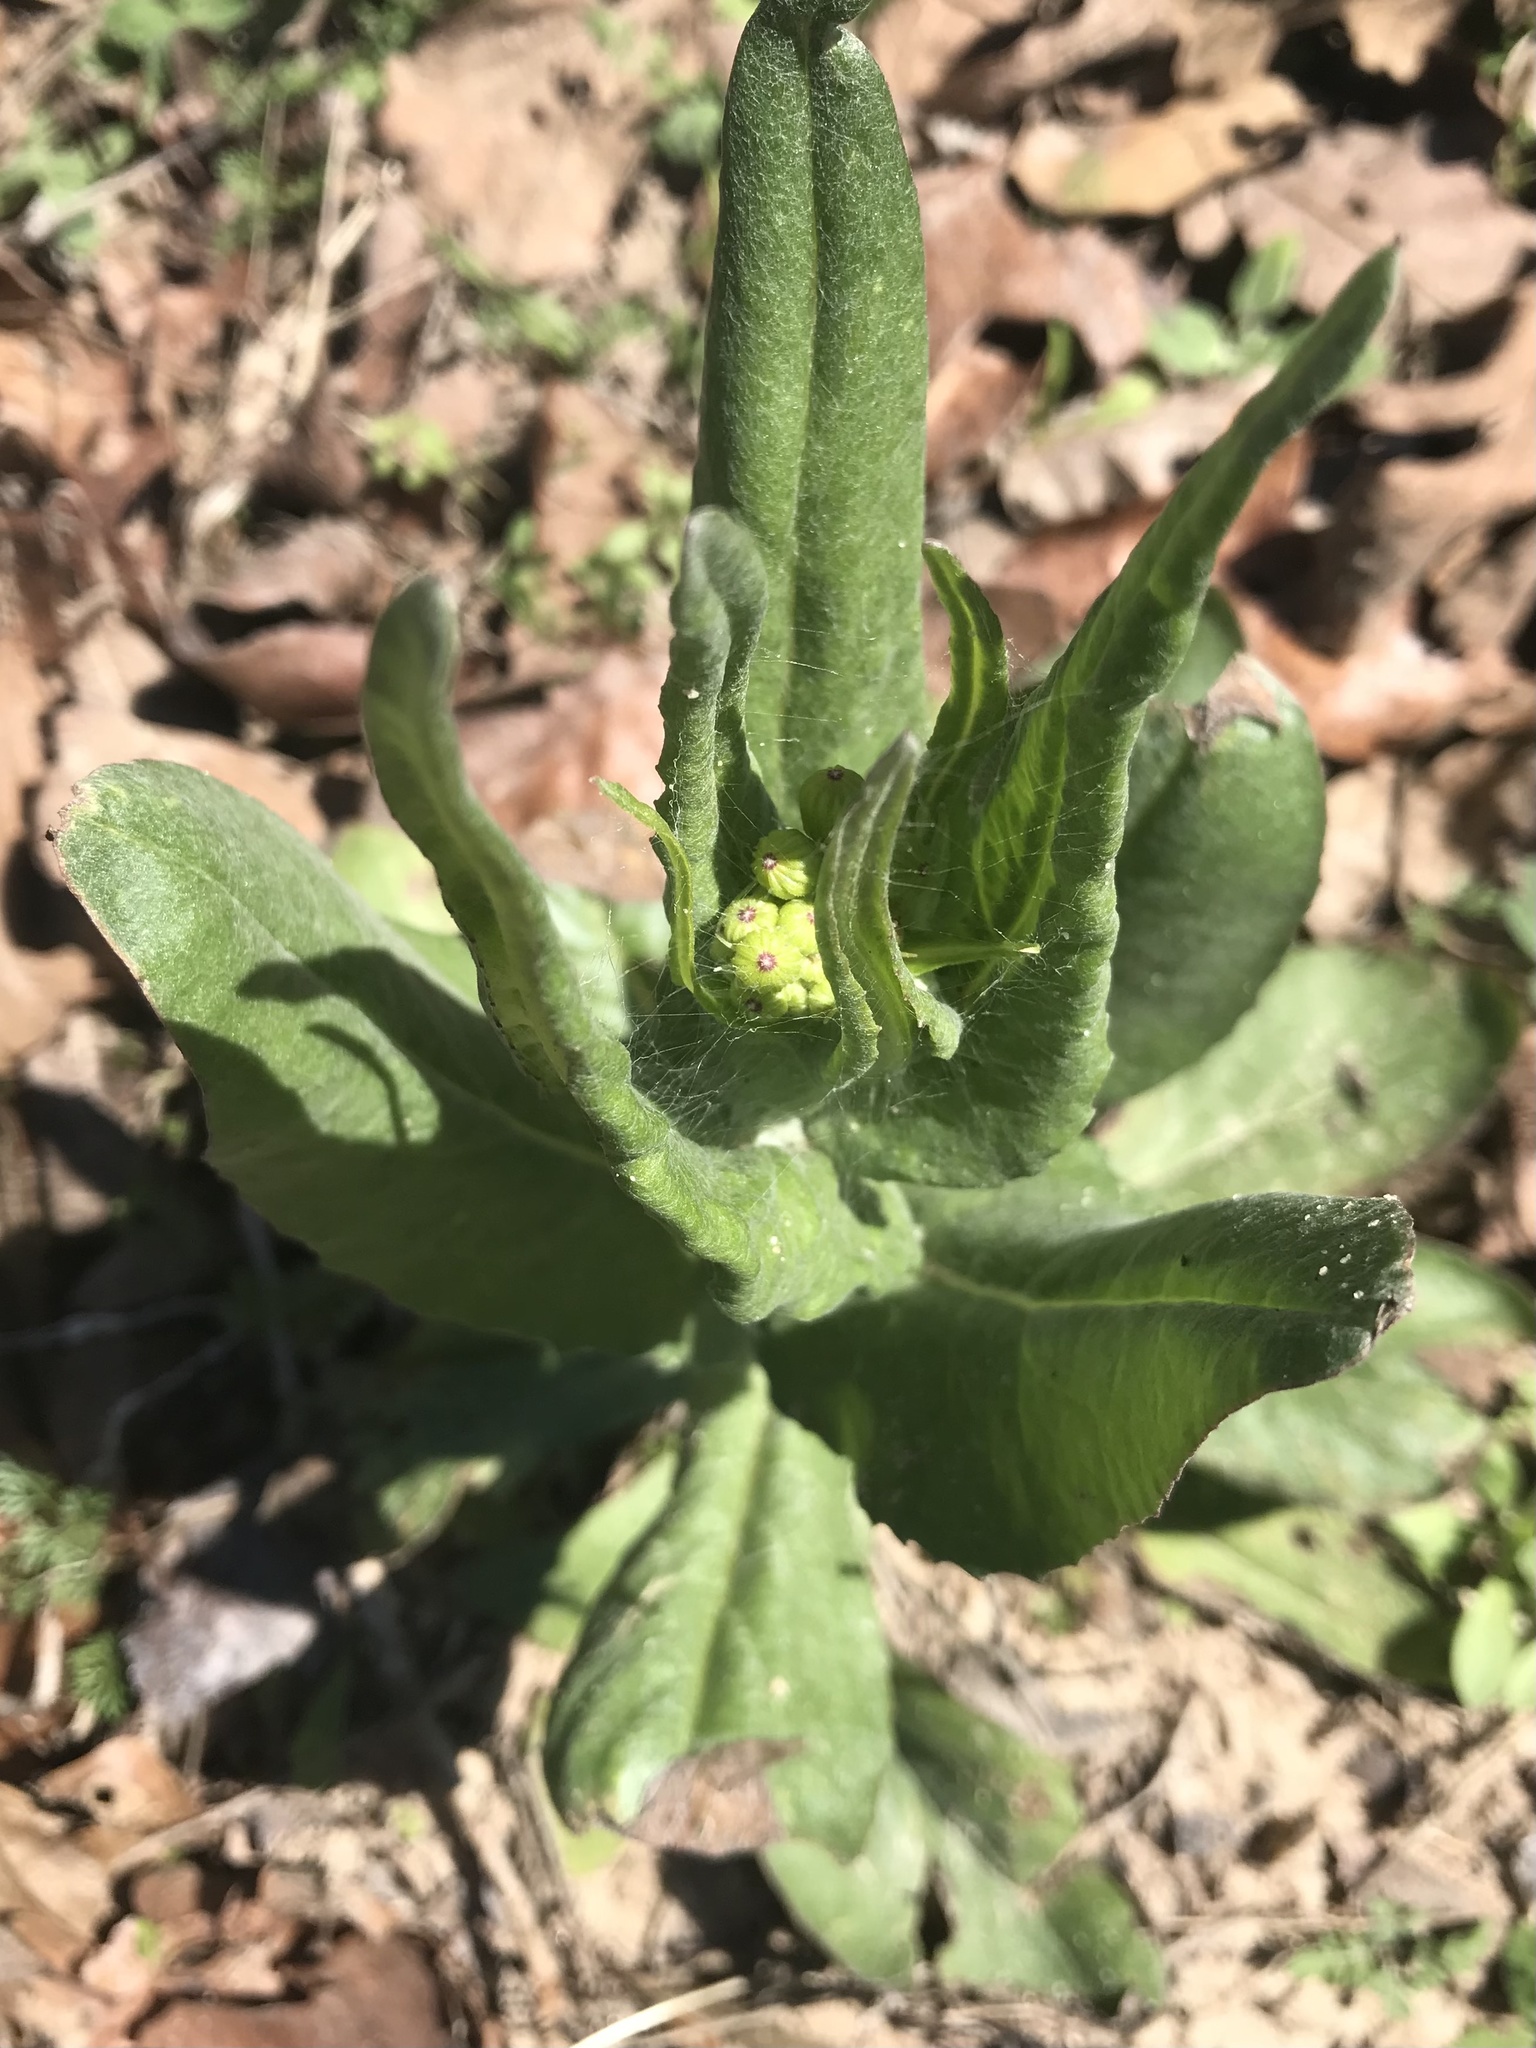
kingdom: Plantae
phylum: Tracheophyta
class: Magnoliopsida
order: Asterales
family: Asteraceae
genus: Senecio
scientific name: Senecio ampullaceus
